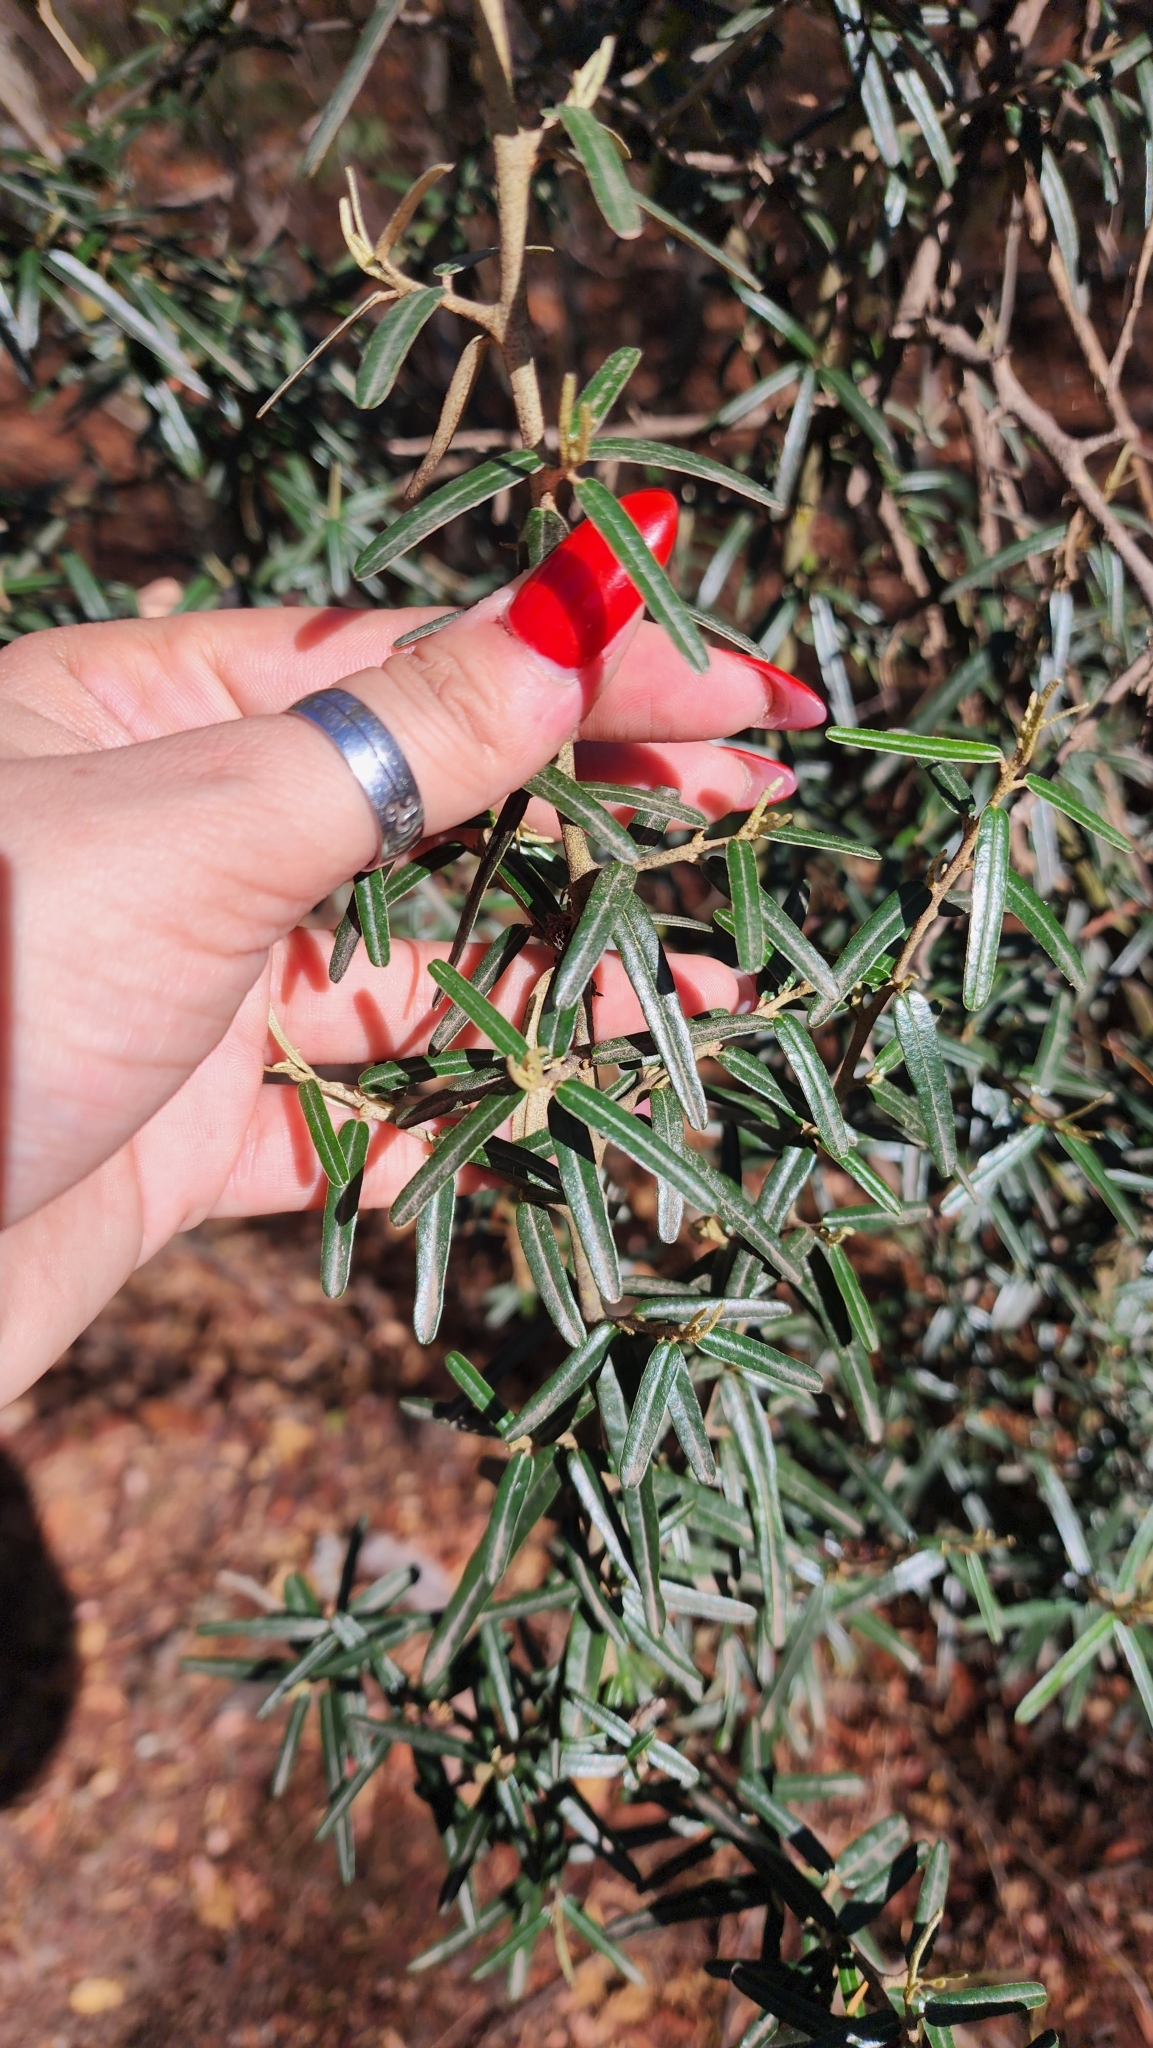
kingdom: Plantae
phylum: Tracheophyta
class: Magnoliopsida
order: Brassicales
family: Capparaceae
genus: Atamisquea
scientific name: Atamisquea emarginata
